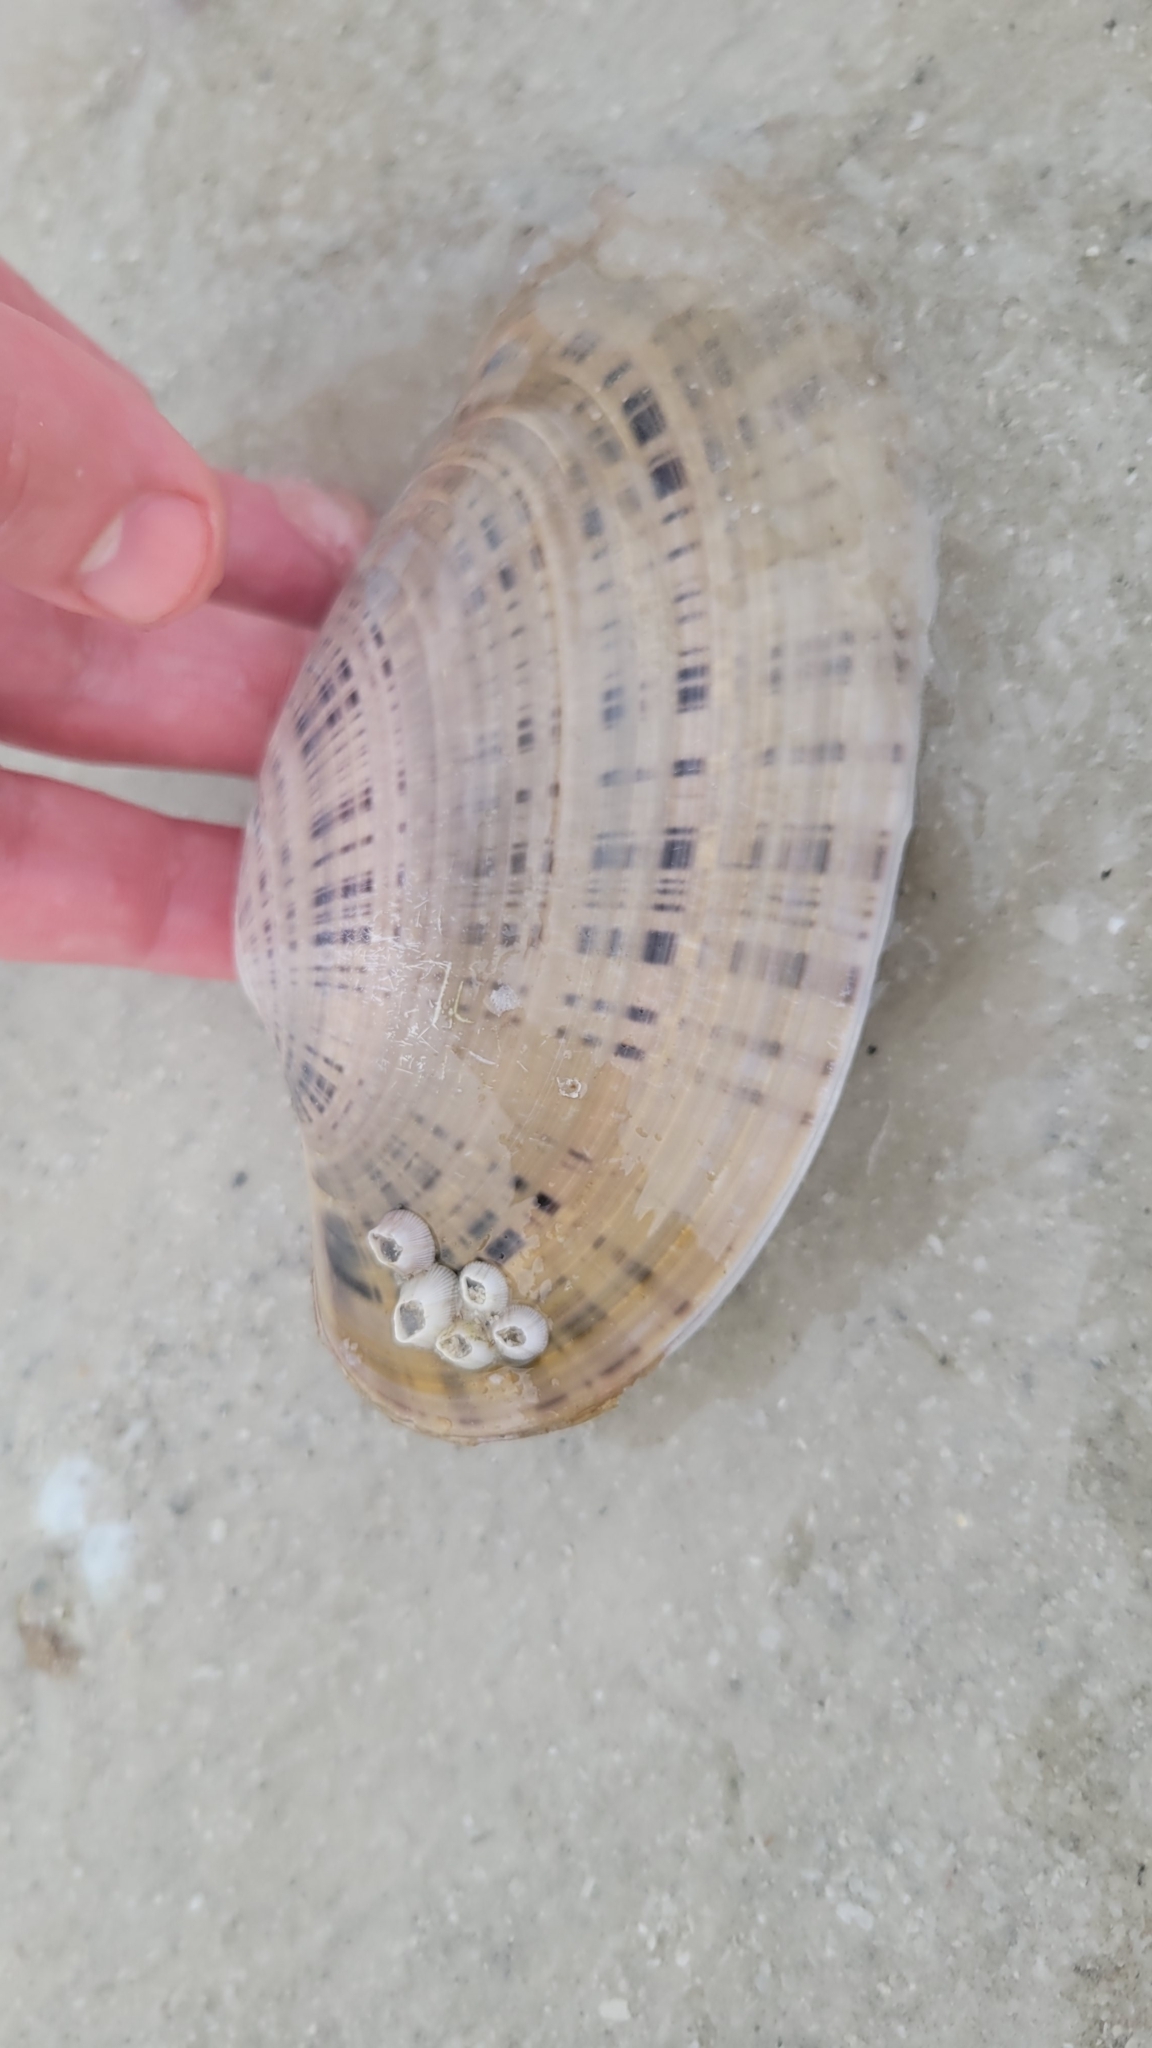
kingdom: Animalia
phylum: Mollusca
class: Bivalvia
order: Venerida
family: Veneridae
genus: Macrocallista
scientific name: Macrocallista nimbosa
